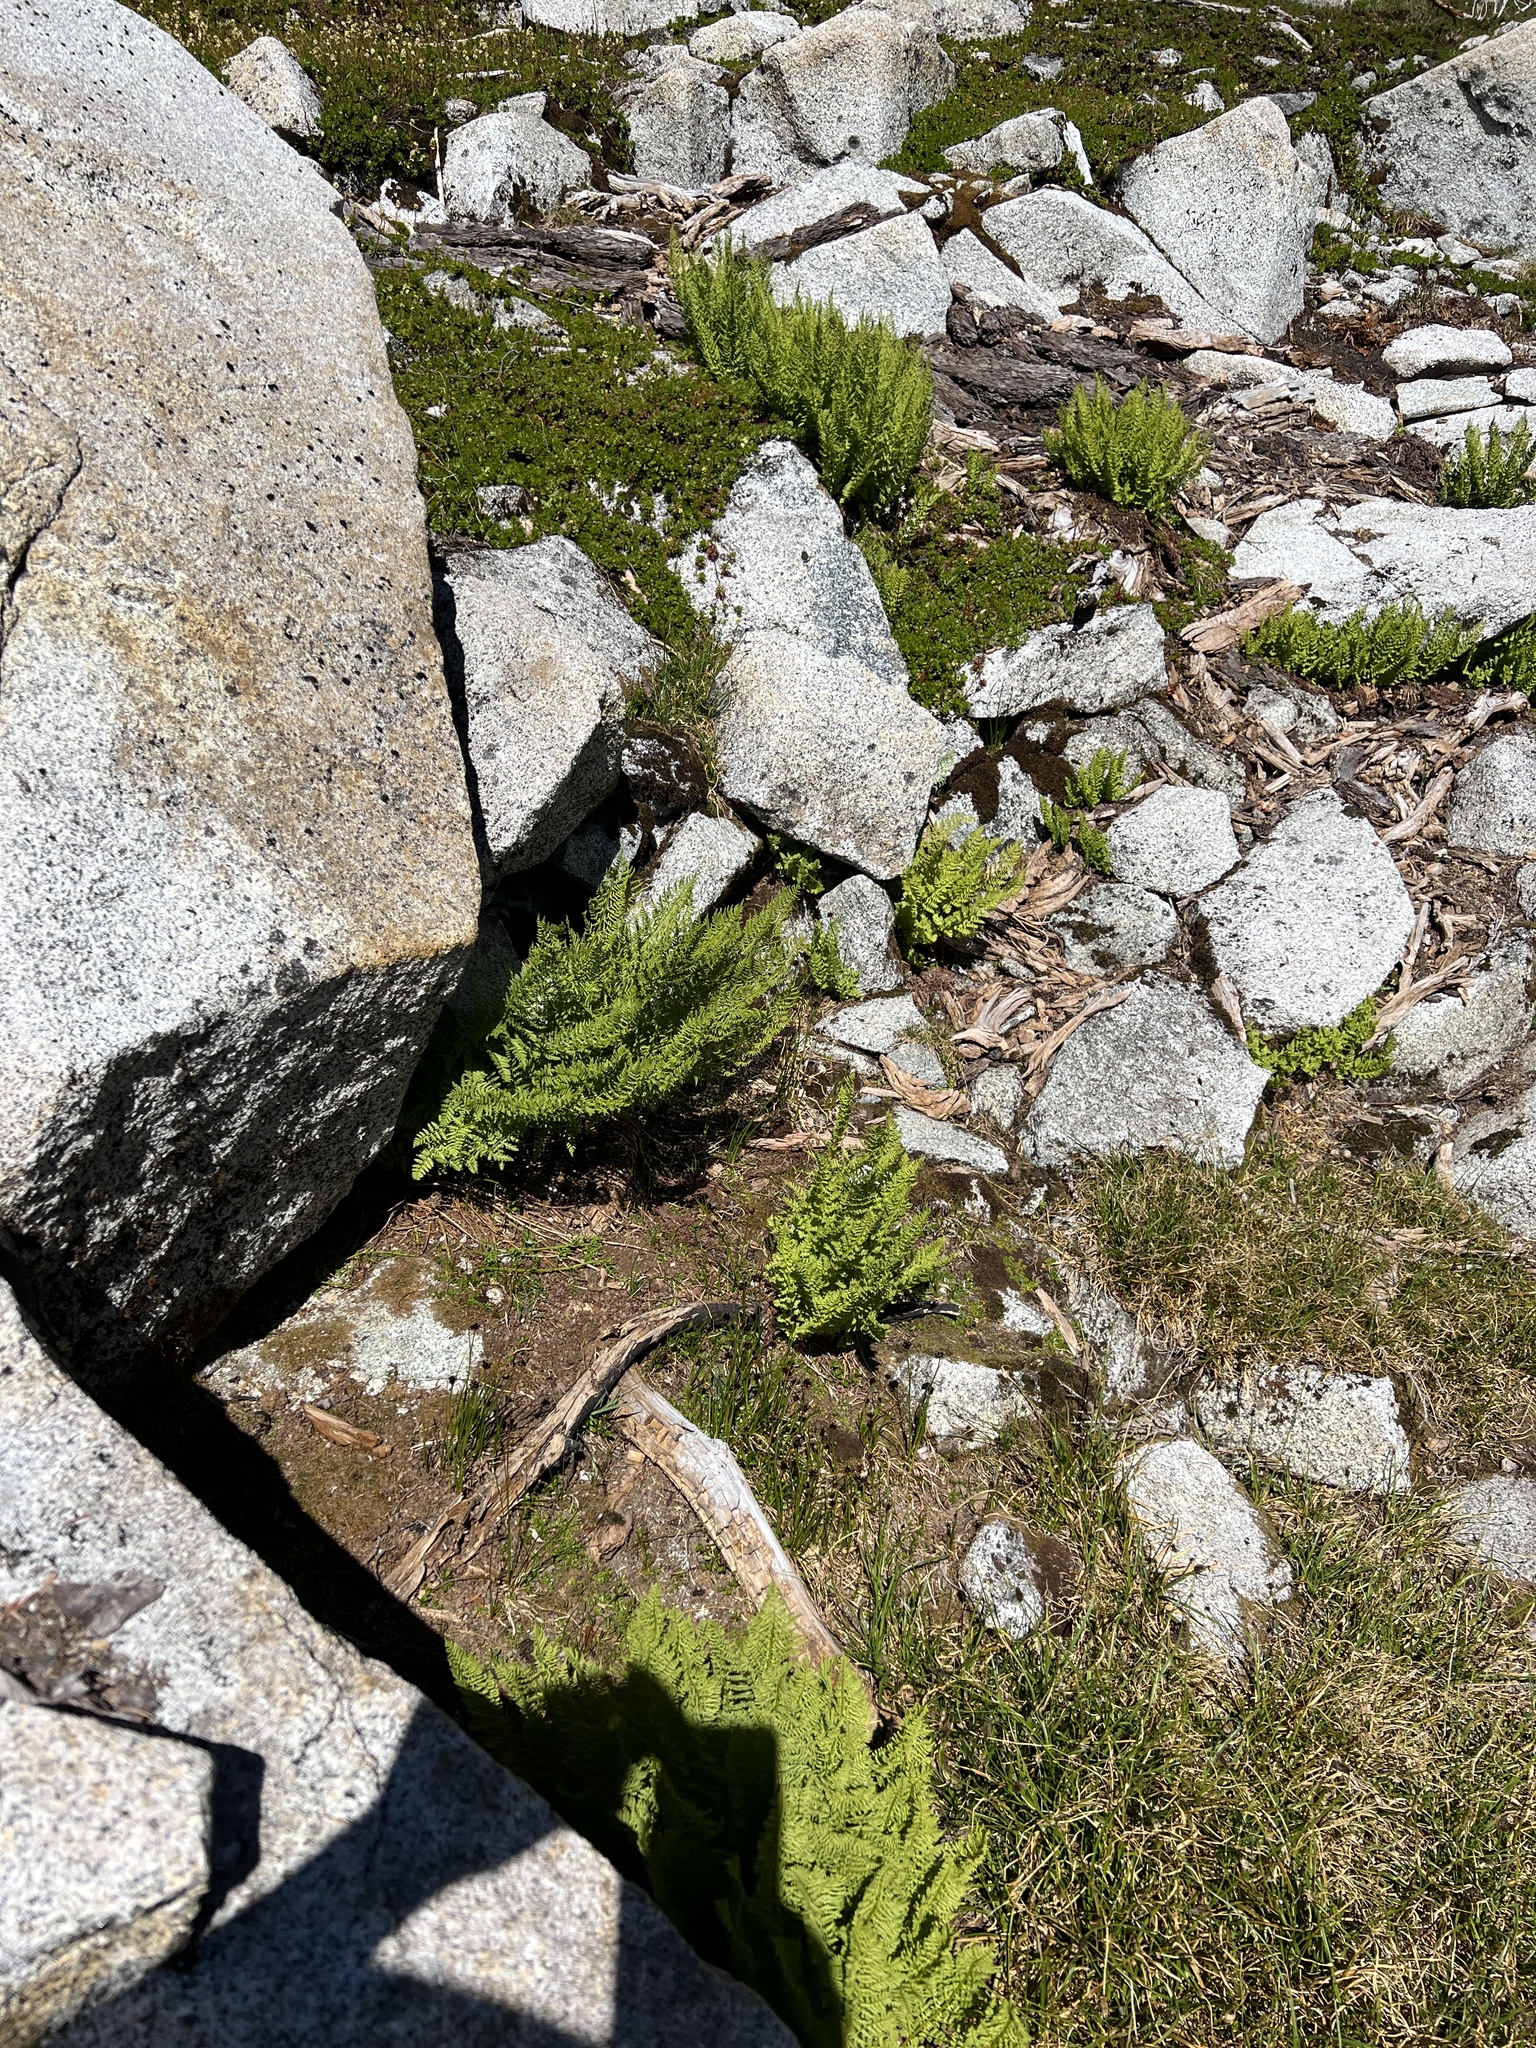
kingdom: Plantae
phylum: Tracheophyta
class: Polypodiopsida
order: Polypodiales
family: Athyriaceae
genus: Athyrium
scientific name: Athyrium americanum
